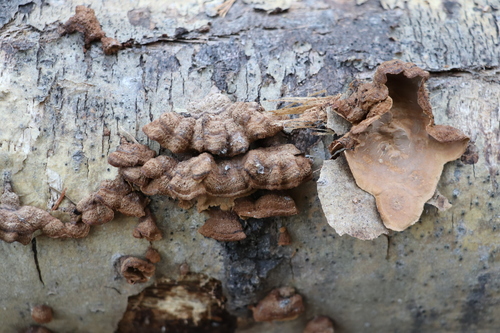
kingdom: Fungi
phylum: Basidiomycota
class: Agaricomycetes
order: Hymenochaetales
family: Hymenochaetaceae
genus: Hydnoporia
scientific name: Hydnoporia tabacina
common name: Willow glue
